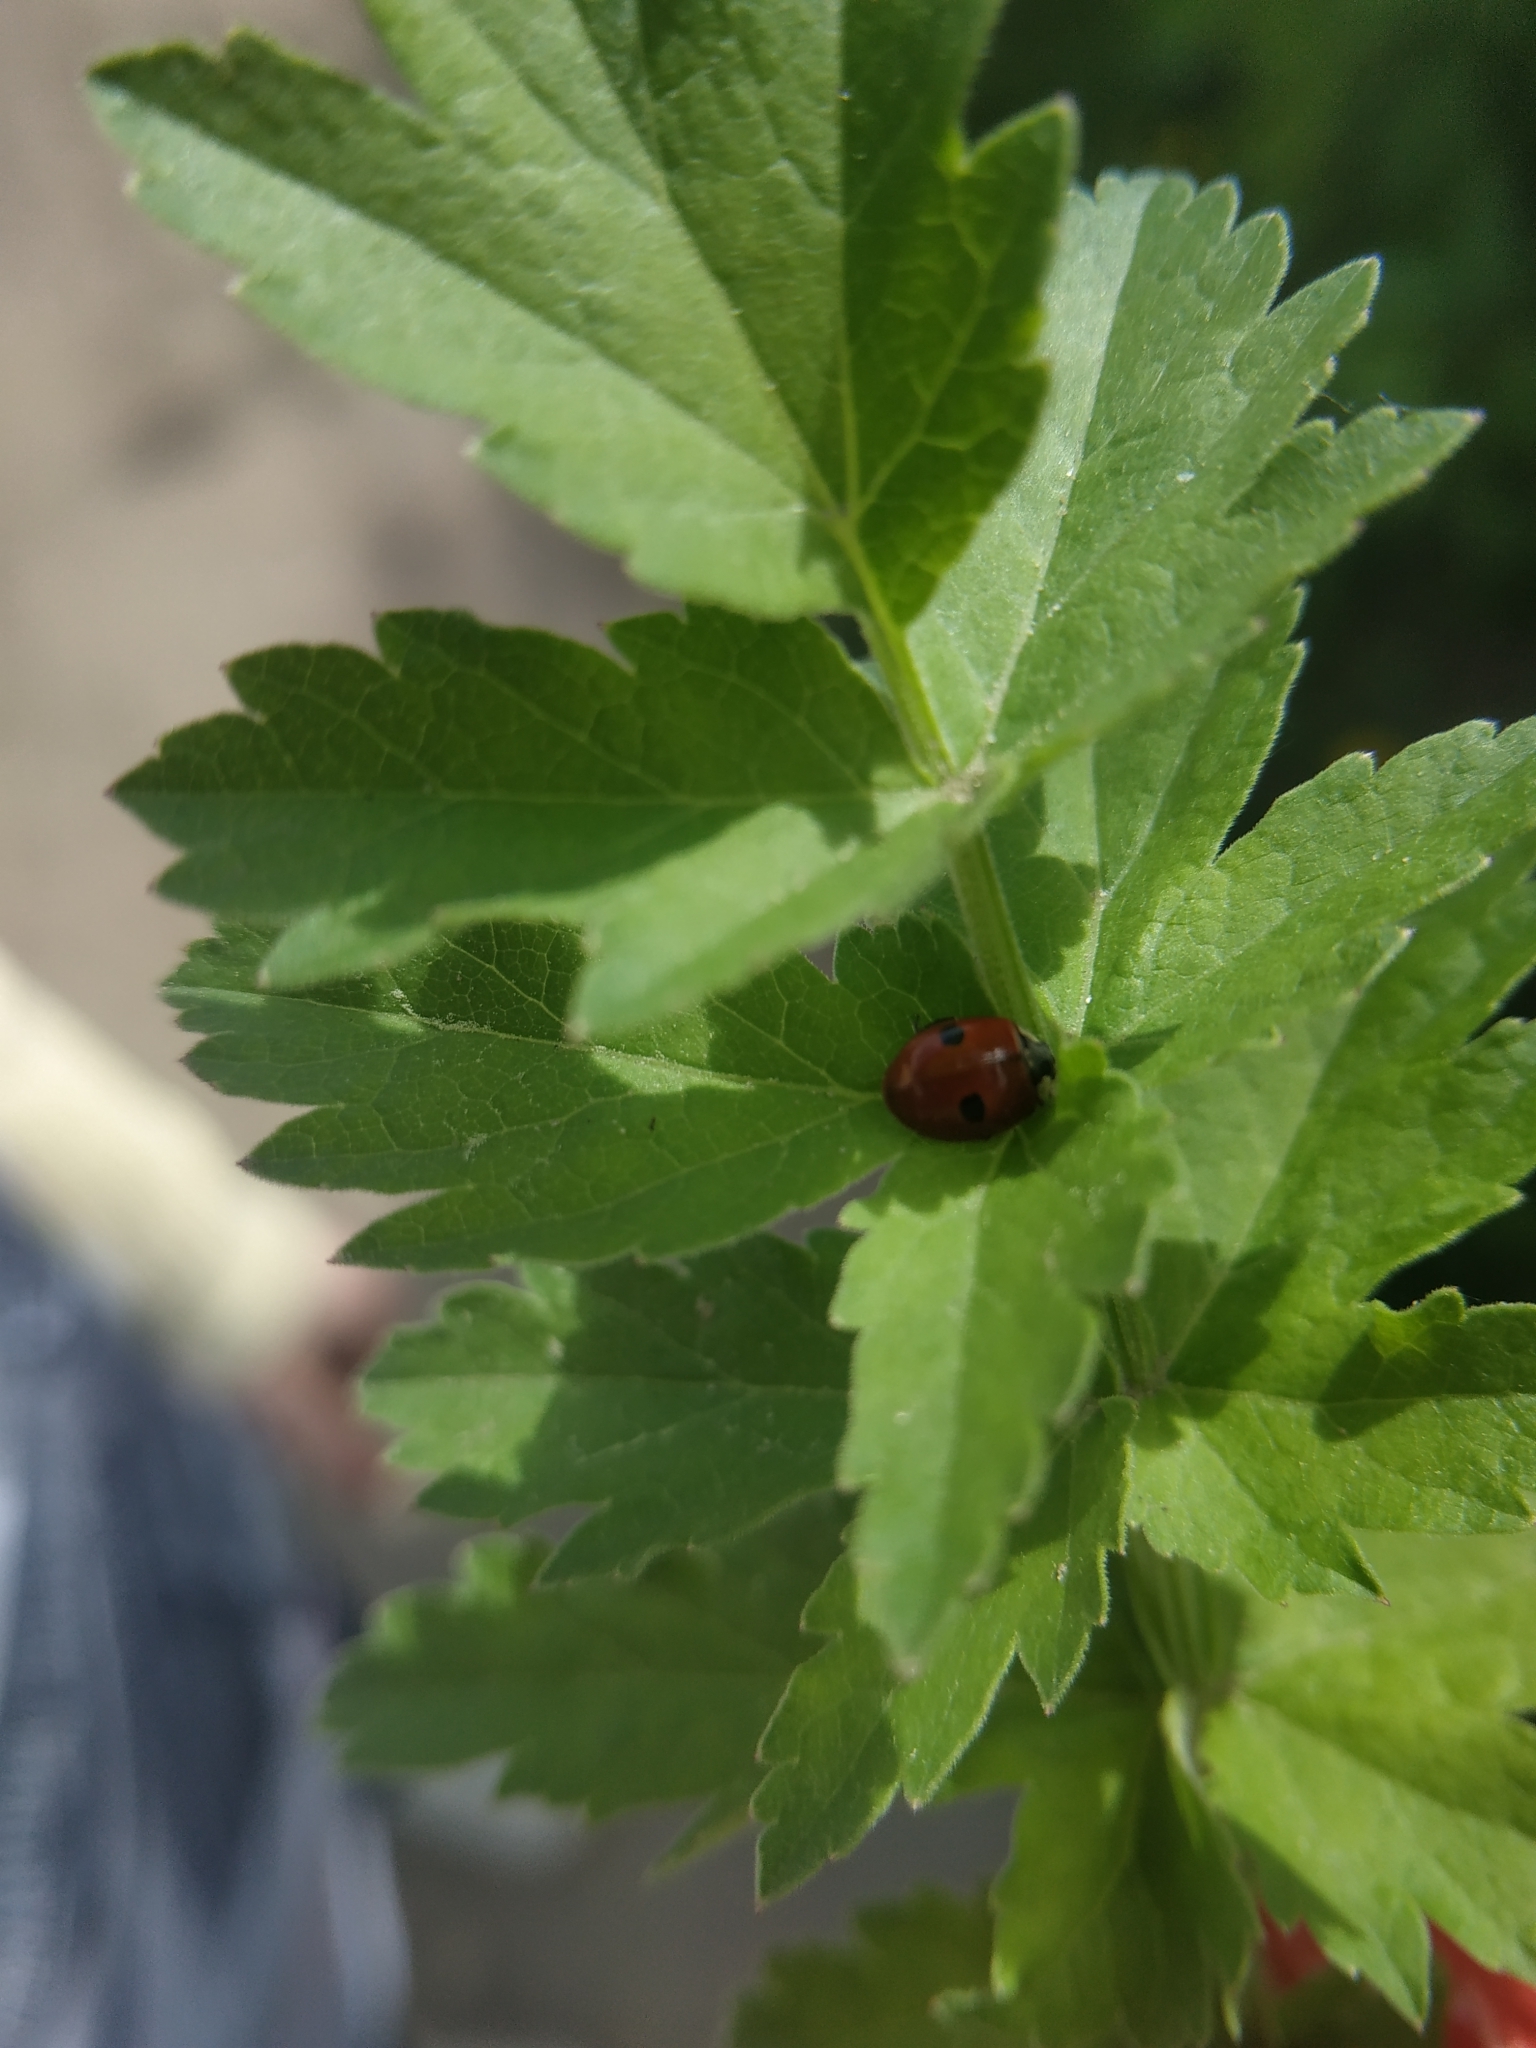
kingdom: Animalia
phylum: Arthropoda
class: Insecta
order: Coleoptera
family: Coccinellidae
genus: Adalia
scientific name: Adalia bipunctata
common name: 2-spot ladybird
